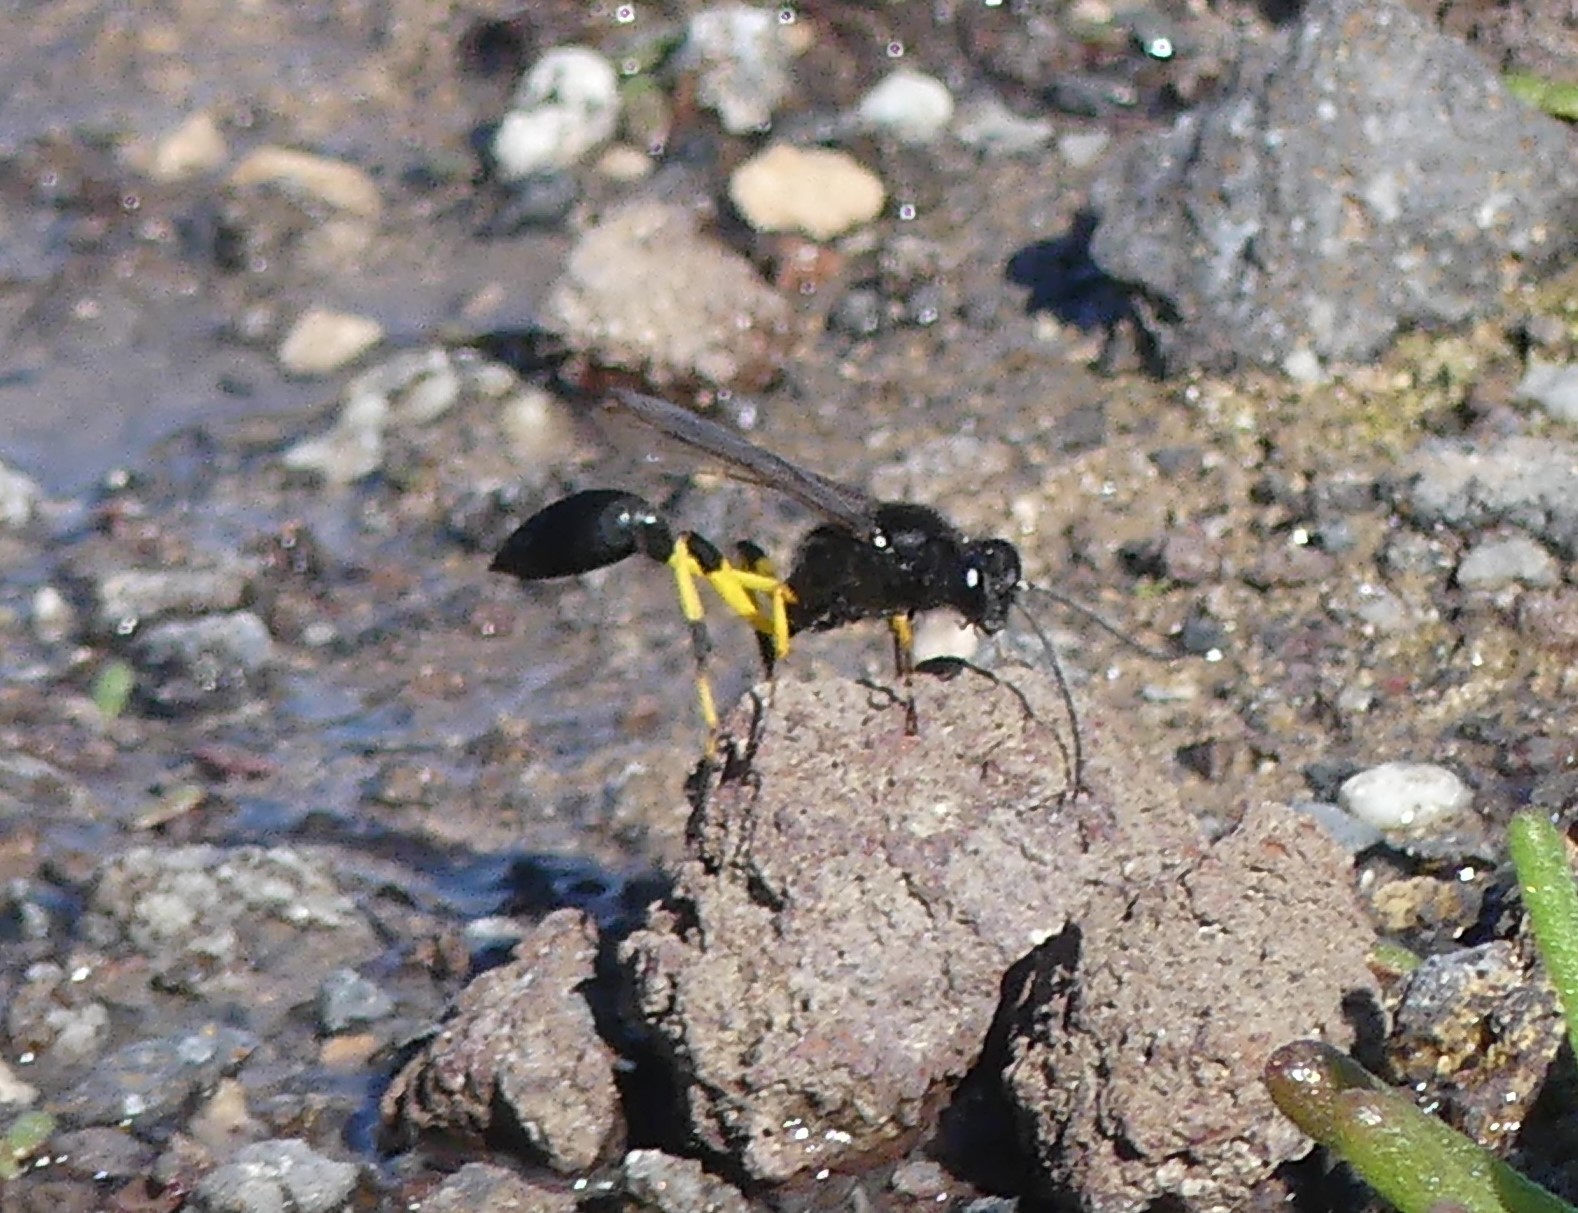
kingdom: Animalia
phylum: Arthropoda
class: Insecta
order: Hymenoptera
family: Sphecidae
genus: Sceliphron
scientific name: Sceliphron spirifex
